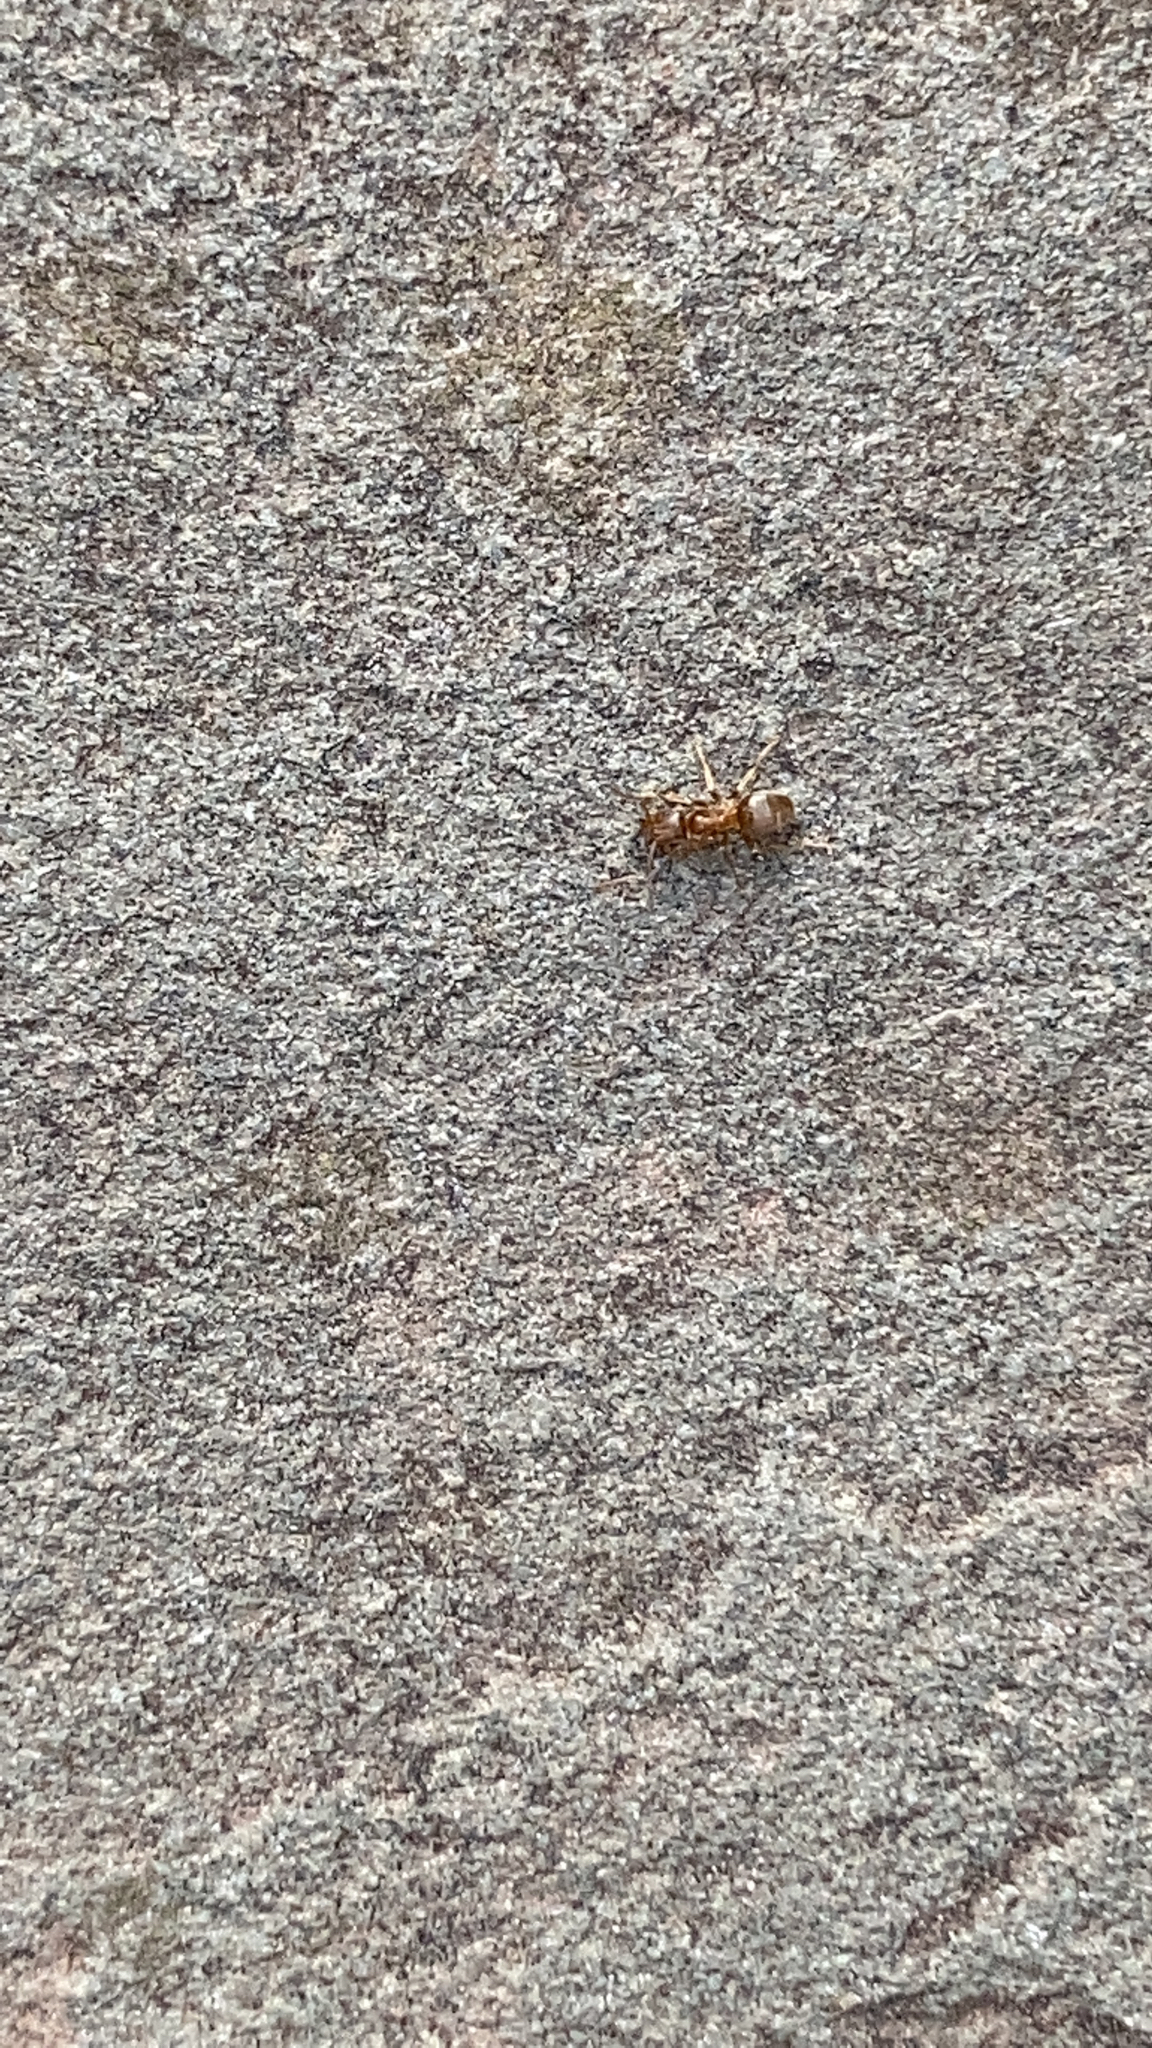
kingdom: Animalia
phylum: Arthropoda
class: Insecta
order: Hymenoptera
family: Formicidae
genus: Lasius
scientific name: Lasius neoniger
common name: Turfgrass ant
